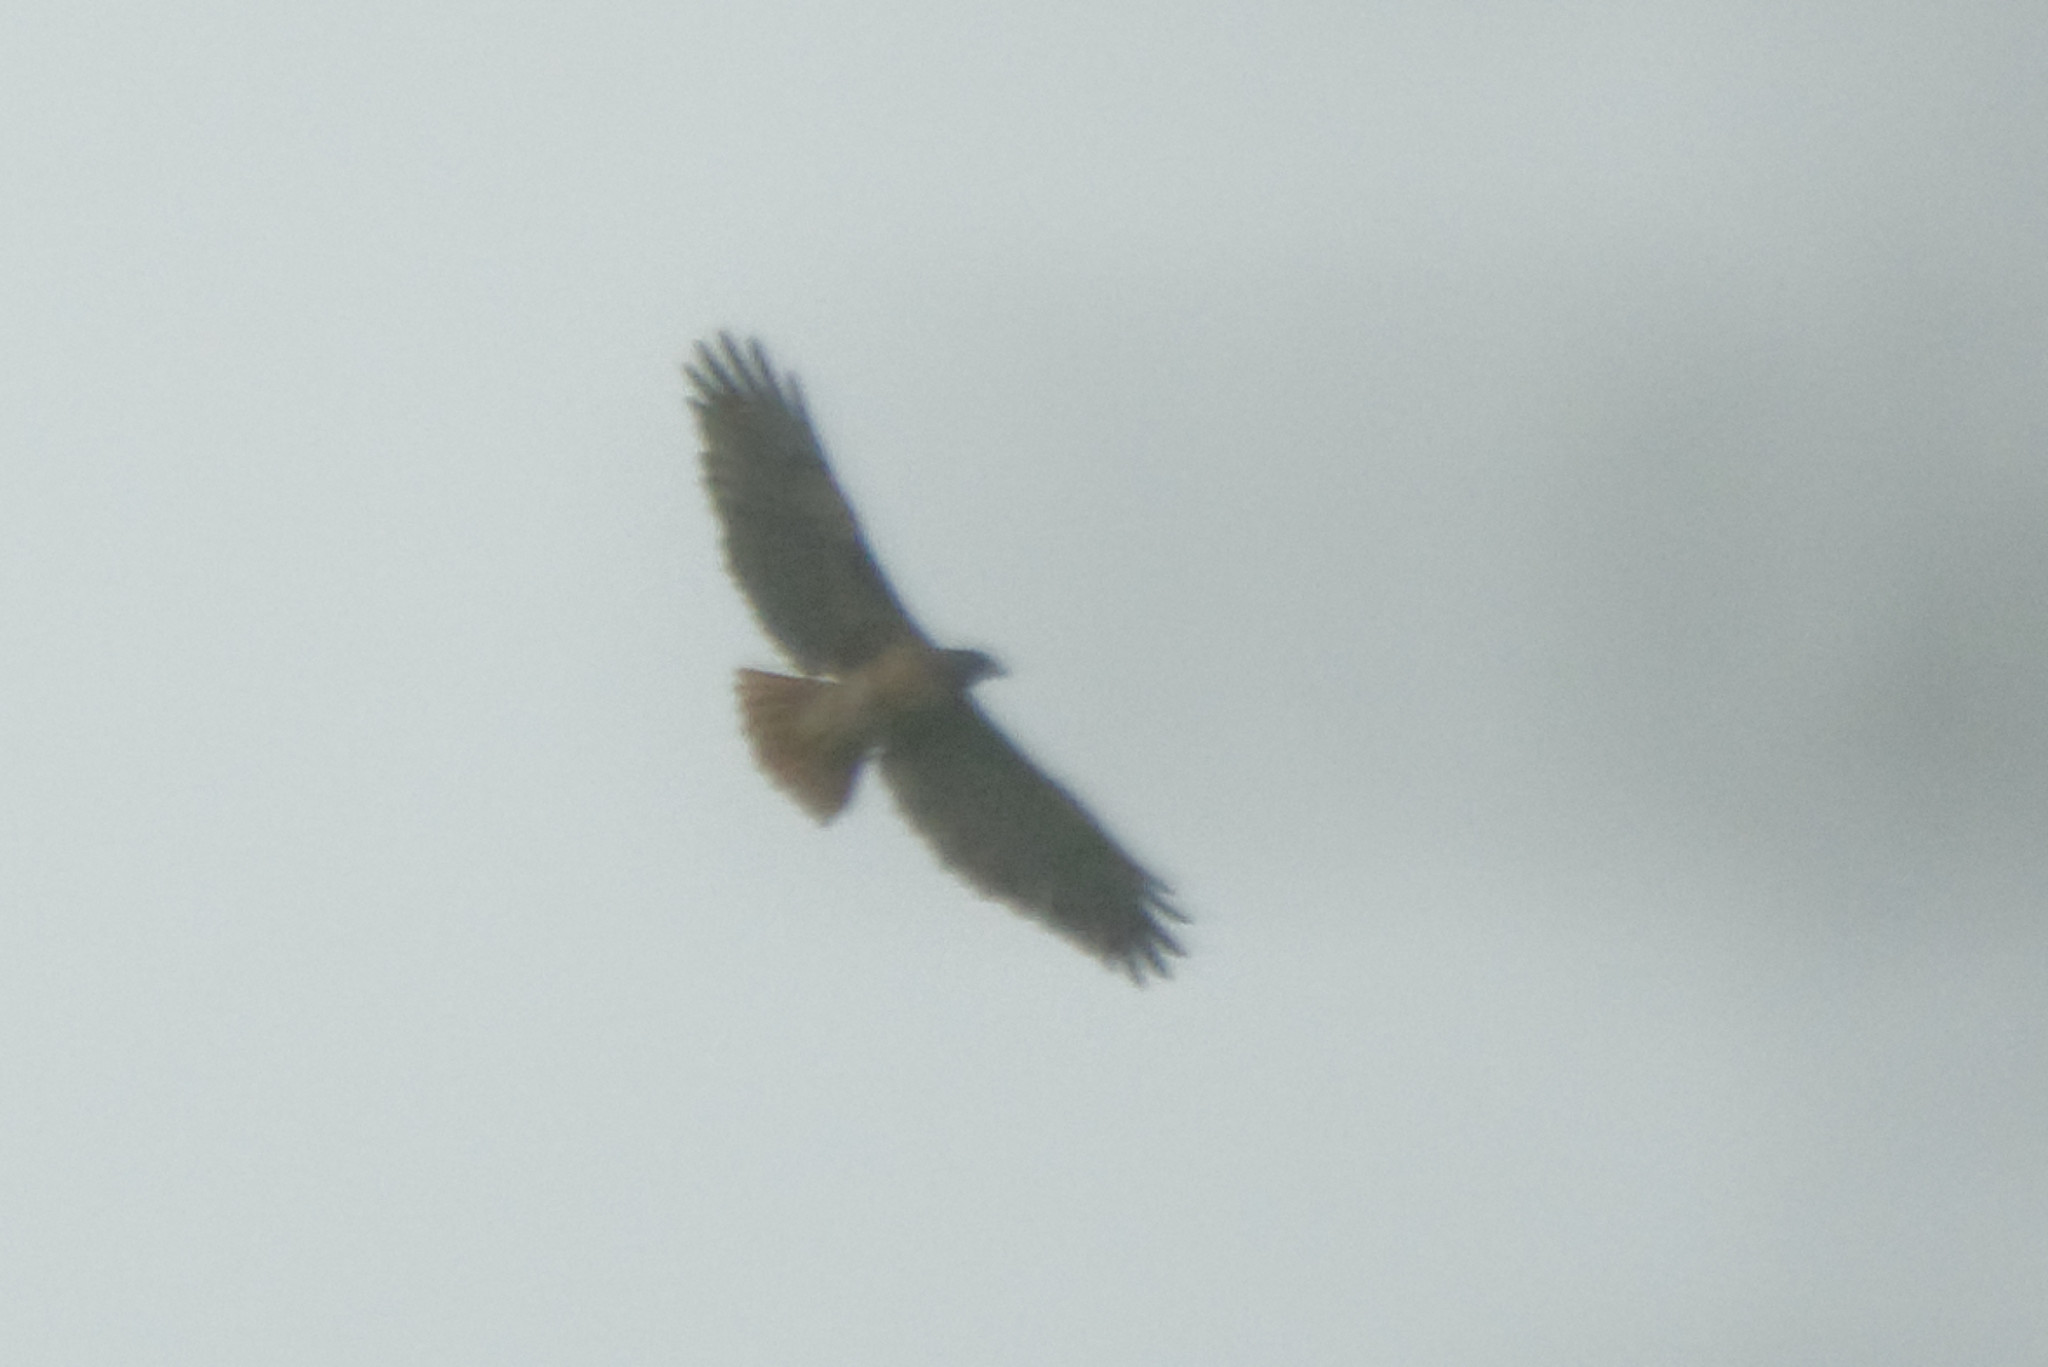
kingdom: Animalia
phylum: Chordata
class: Aves
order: Accipitriformes
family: Accipitridae
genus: Buteo
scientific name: Buteo jamaicensis
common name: Red-tailed hawk
